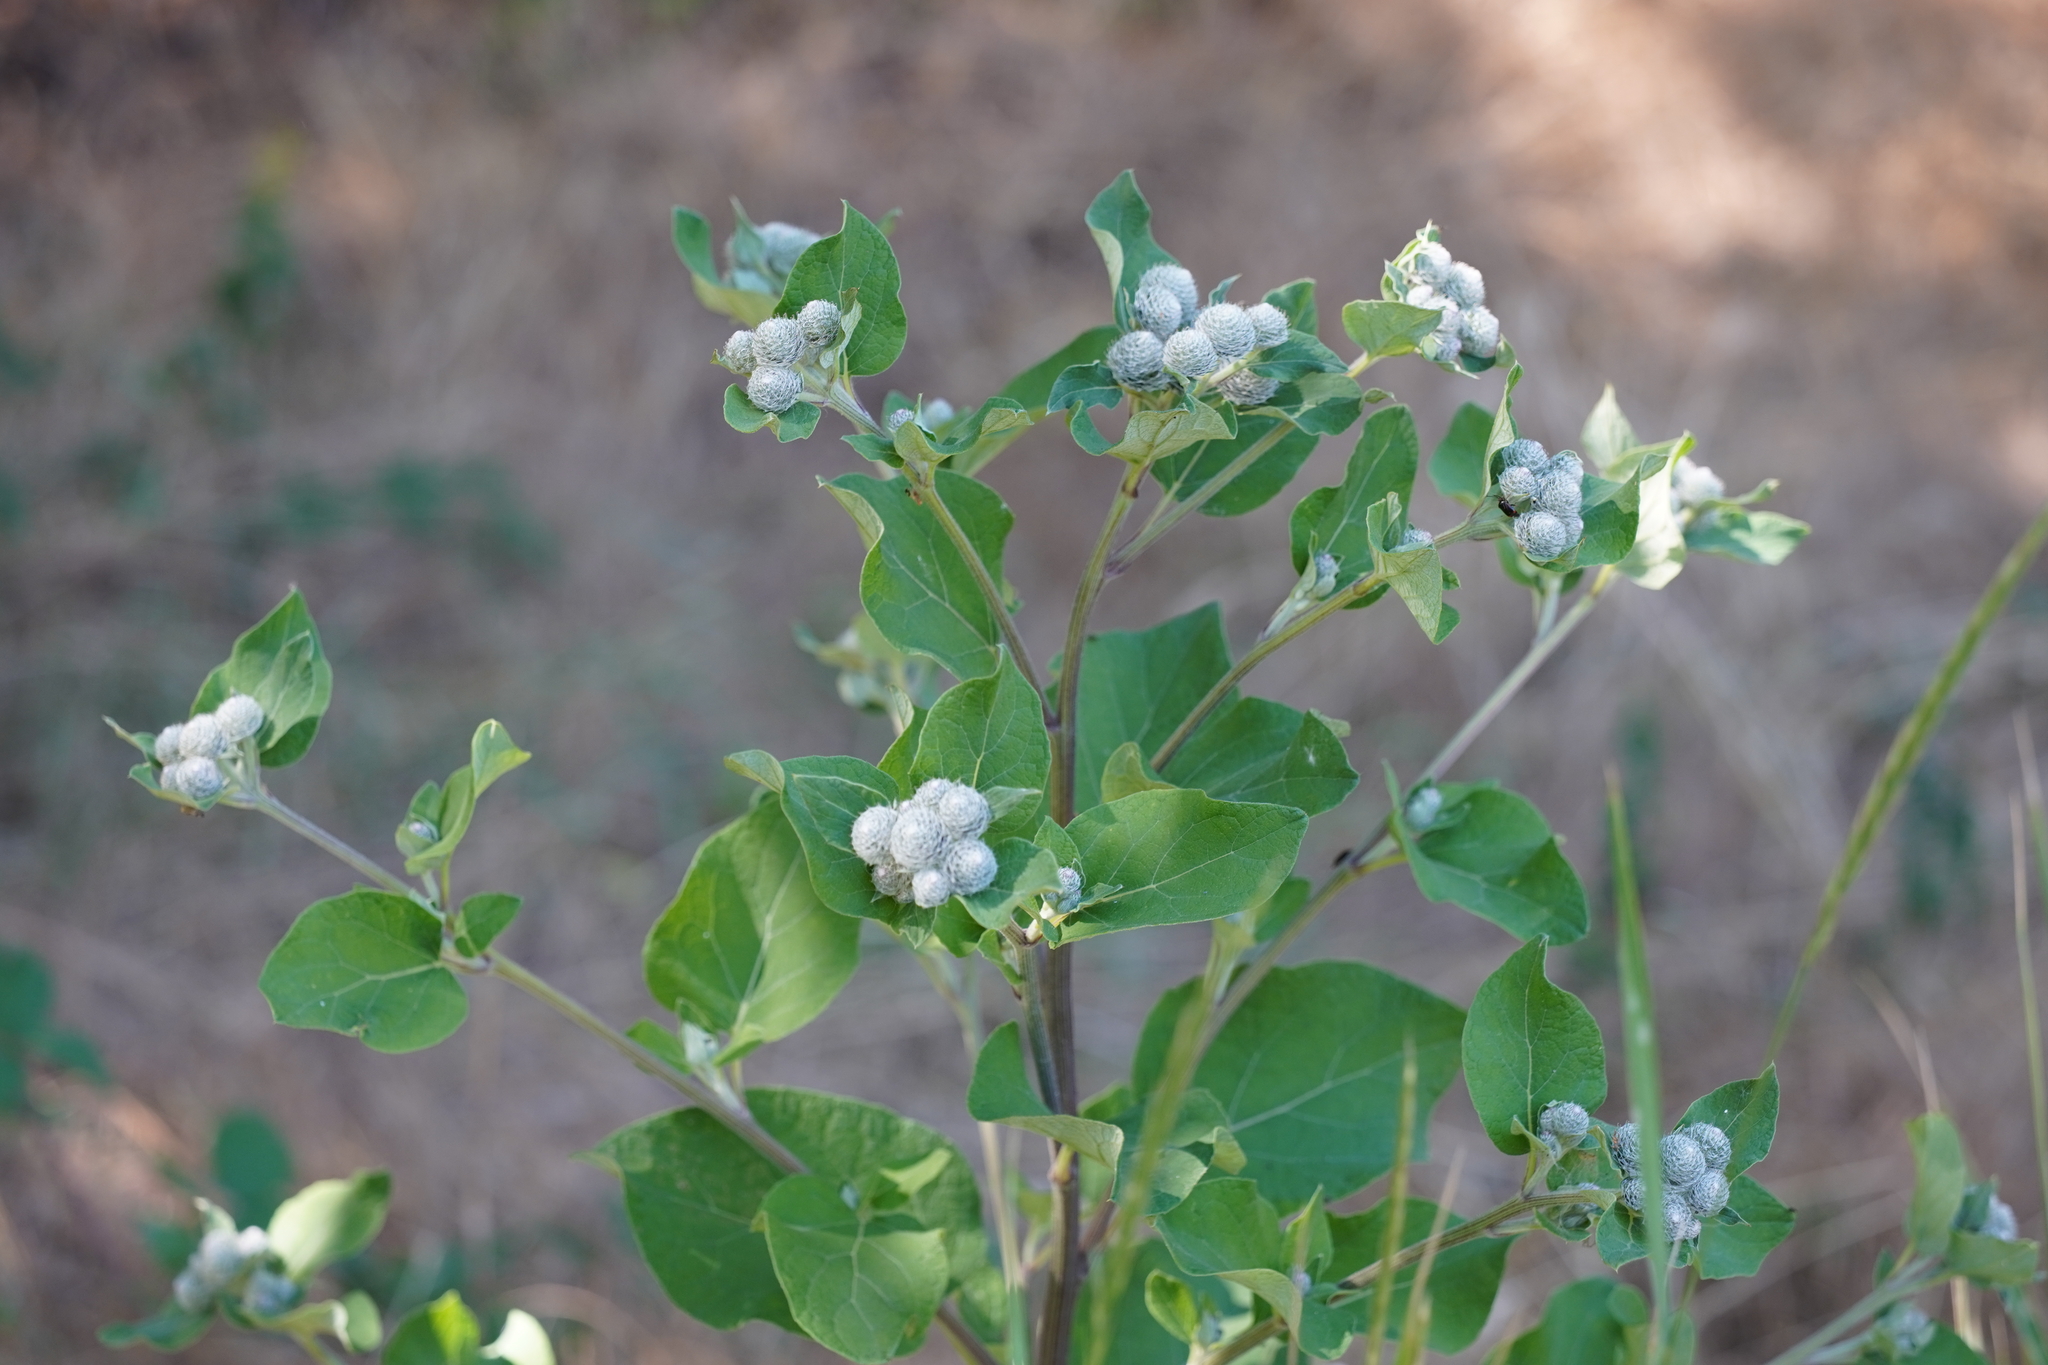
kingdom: Plantae
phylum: Tracheophyta
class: Magnoliopsida
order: Asterales
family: Asteraceae
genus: Arctium
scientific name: Arctium tomentosum
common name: Woolly burdock
